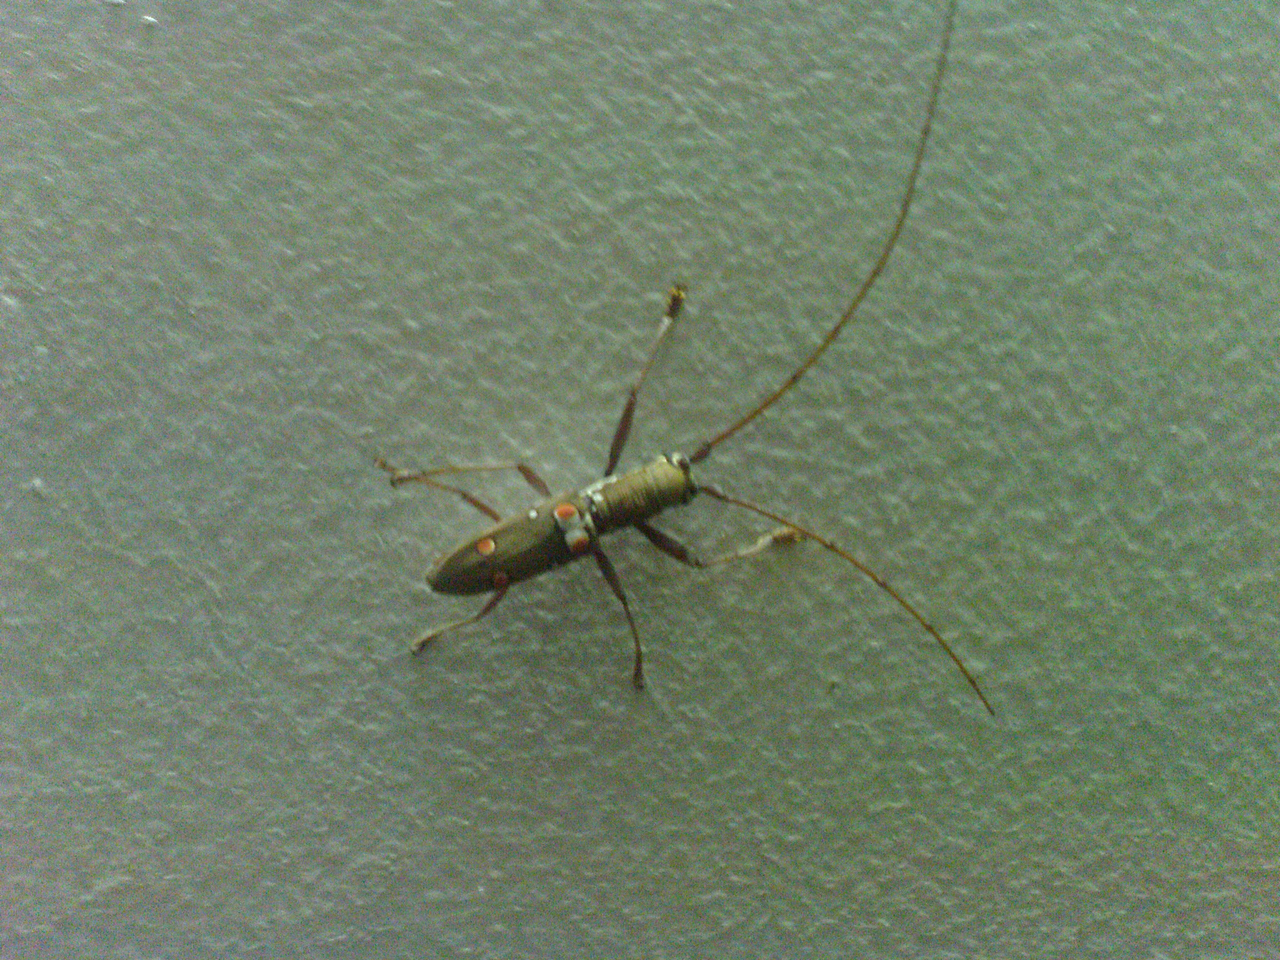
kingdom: Animalia
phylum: Arthropoda
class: Insecta
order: Coleoptera
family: Cerambycidae
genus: Olenecamptus
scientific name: Olenecamptus bilobus
